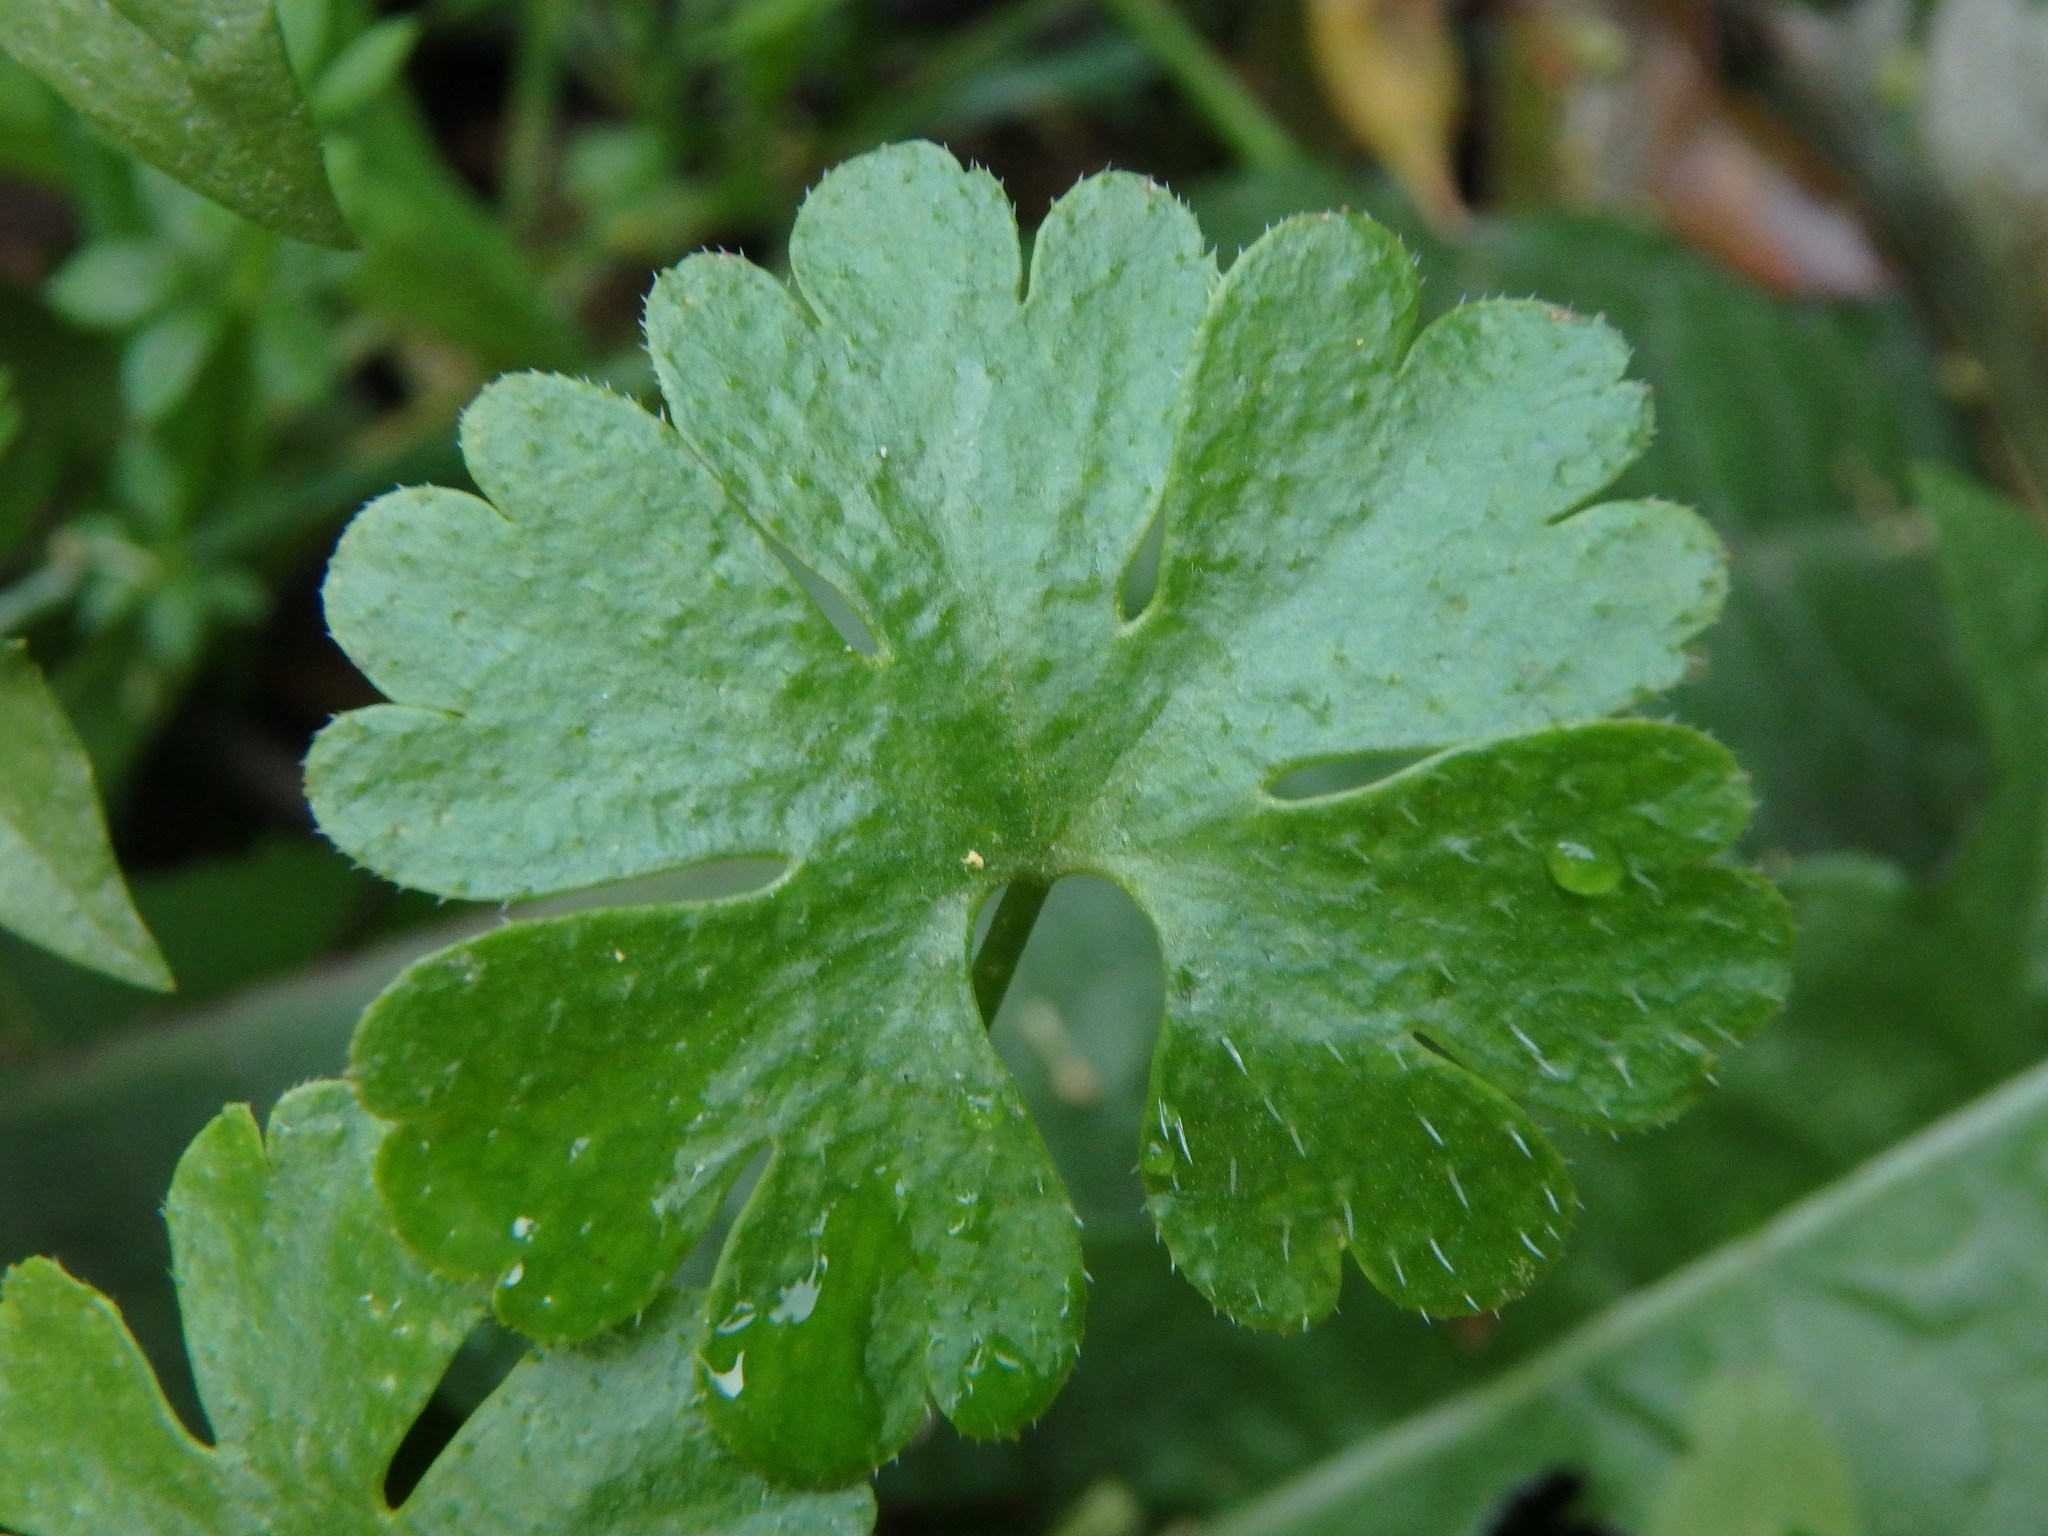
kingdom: Plantae
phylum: Tracheophyta
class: Magnoliopsida
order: Geraniales
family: Geraniaceae
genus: Geranium
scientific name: Geranium lucidum
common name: Shining crane's-bill
